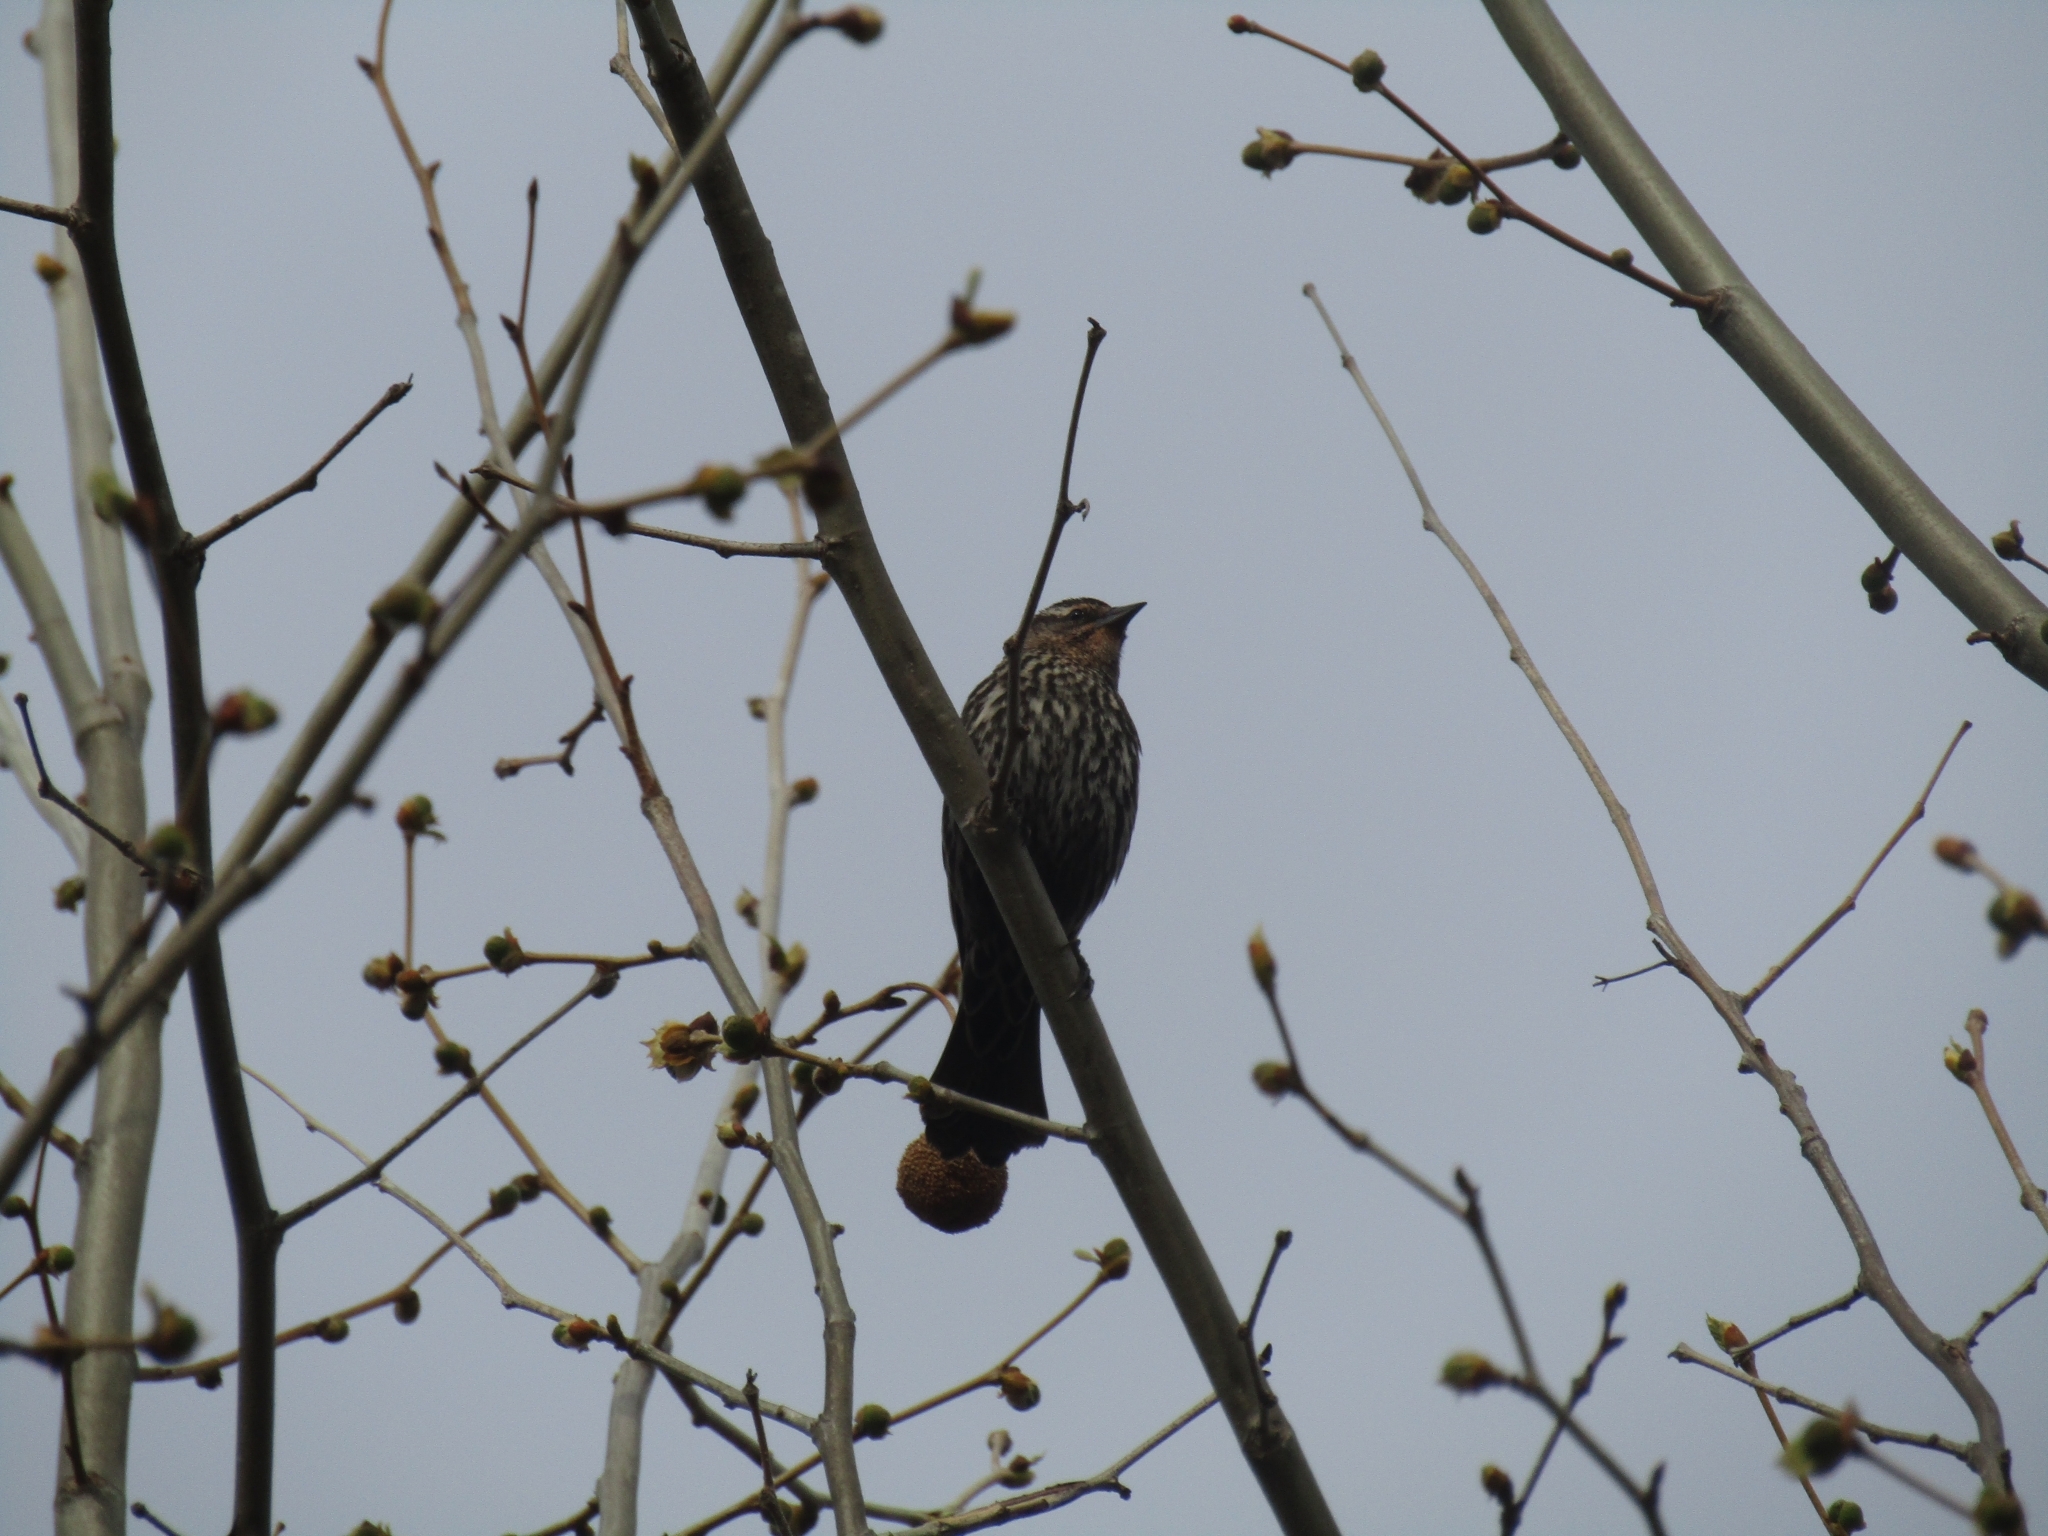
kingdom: Animalia
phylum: Chordata
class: Aves
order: Passeriformes
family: Icteridae
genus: Agelaius
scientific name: Agelaius phoeniceus
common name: Red-winged blackbird
